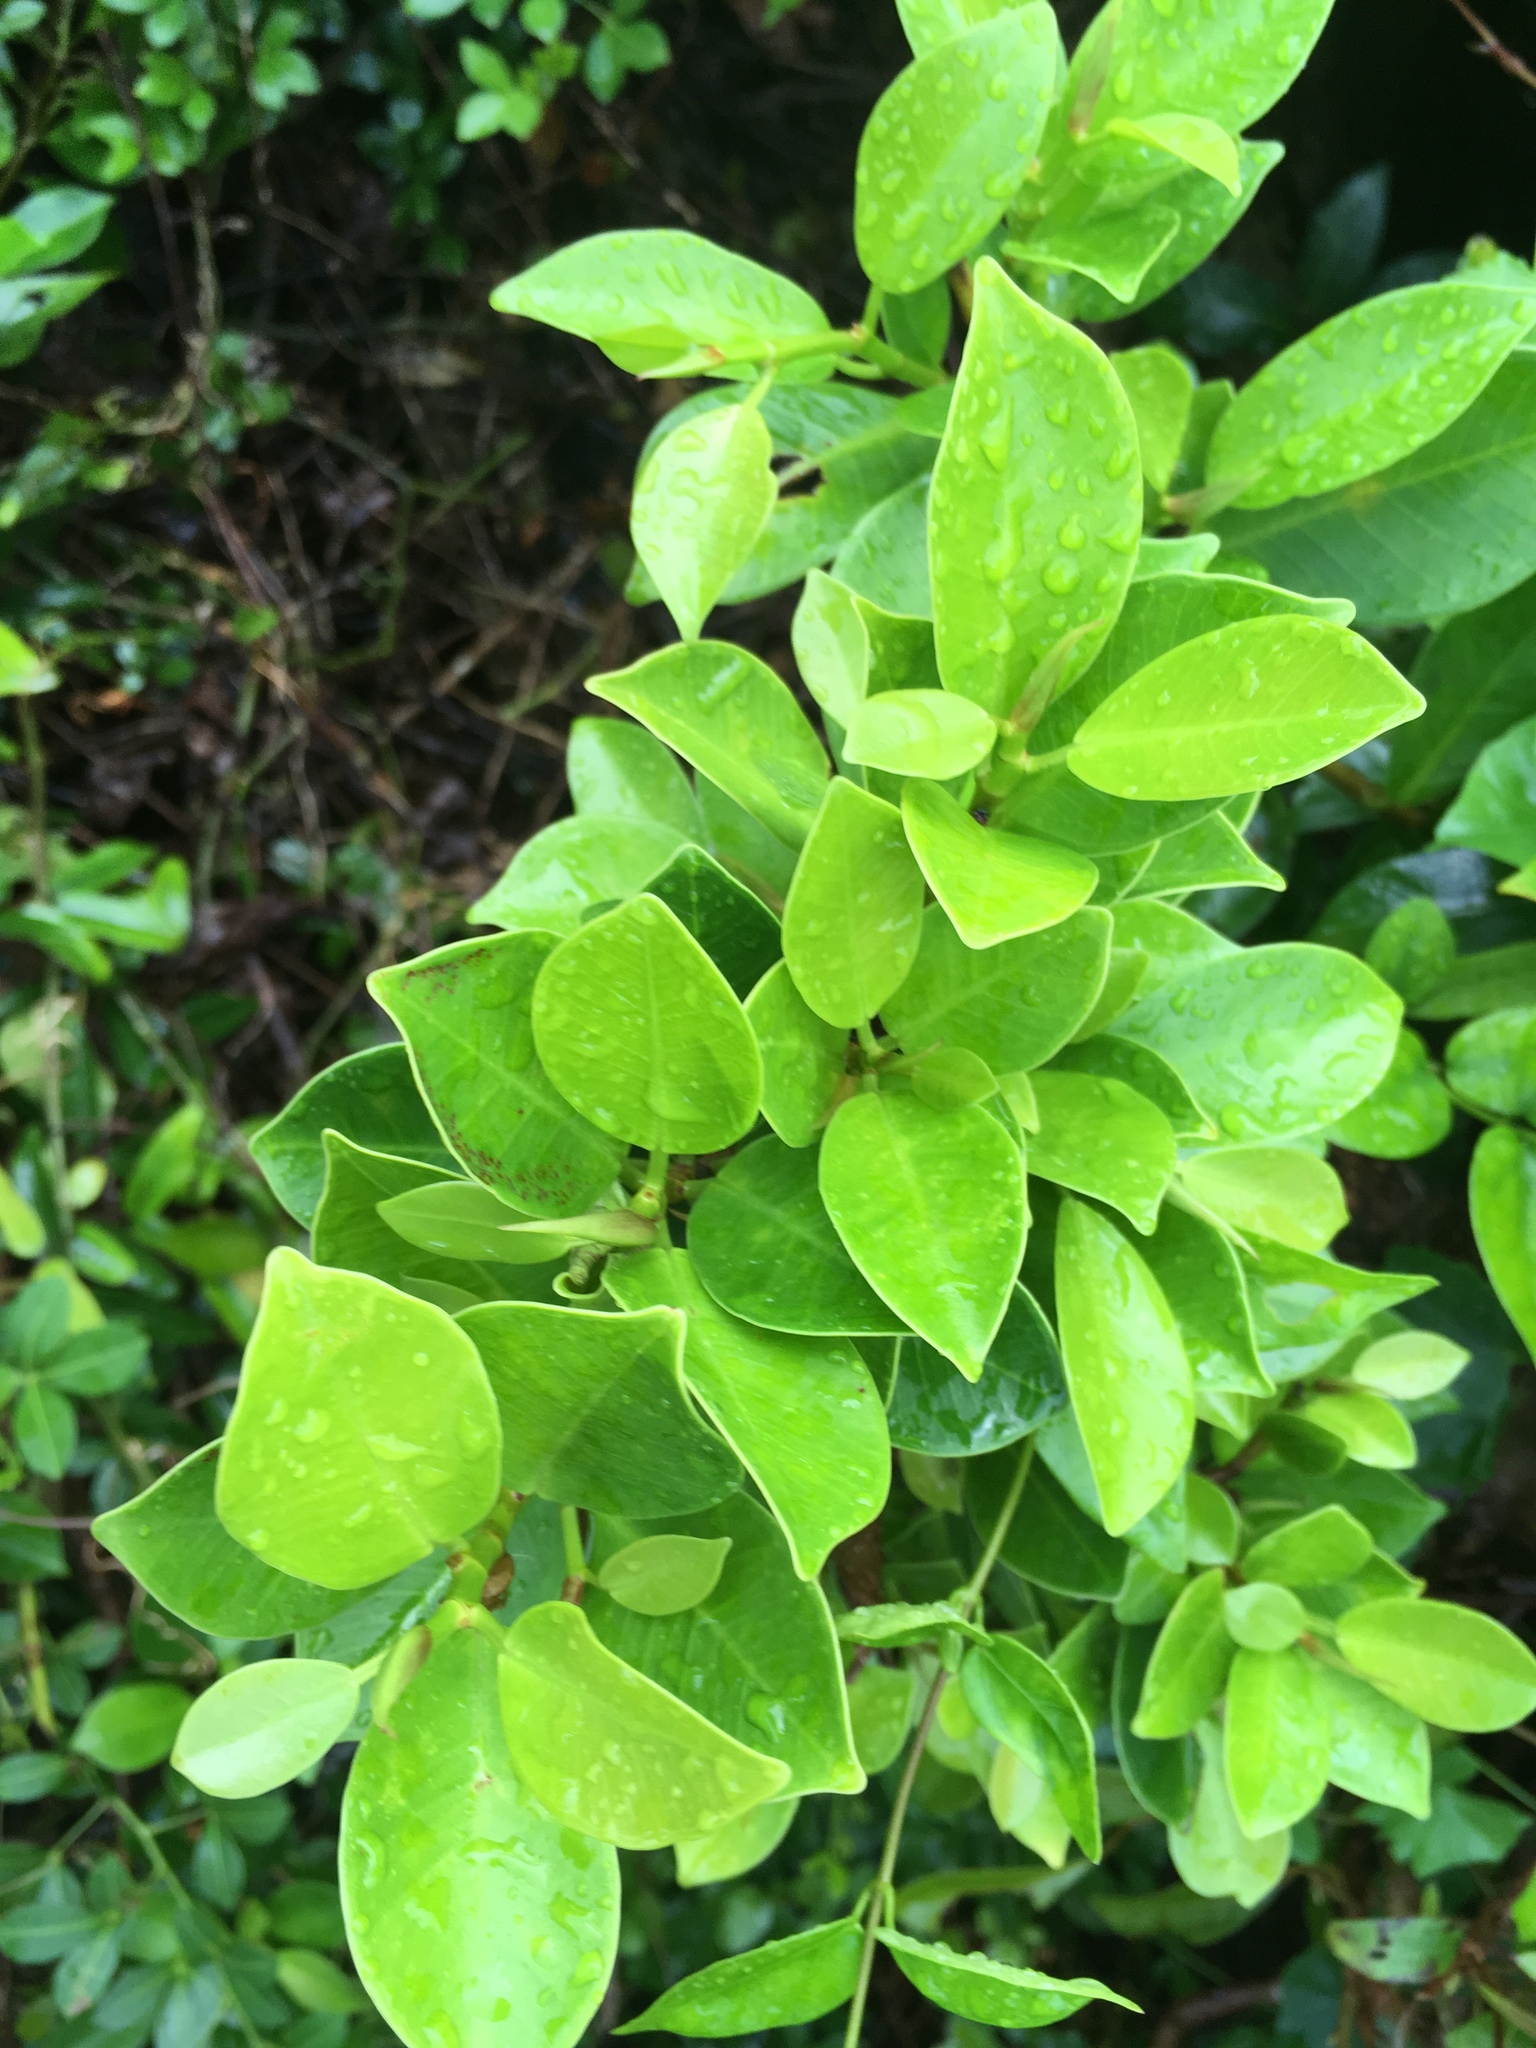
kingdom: Plantae
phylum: Tracheophyta
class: Magnoliopsida
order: Rosales
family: Moraceae
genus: Ficus
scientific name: Ficus microcarpa
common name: Chinese banyan
